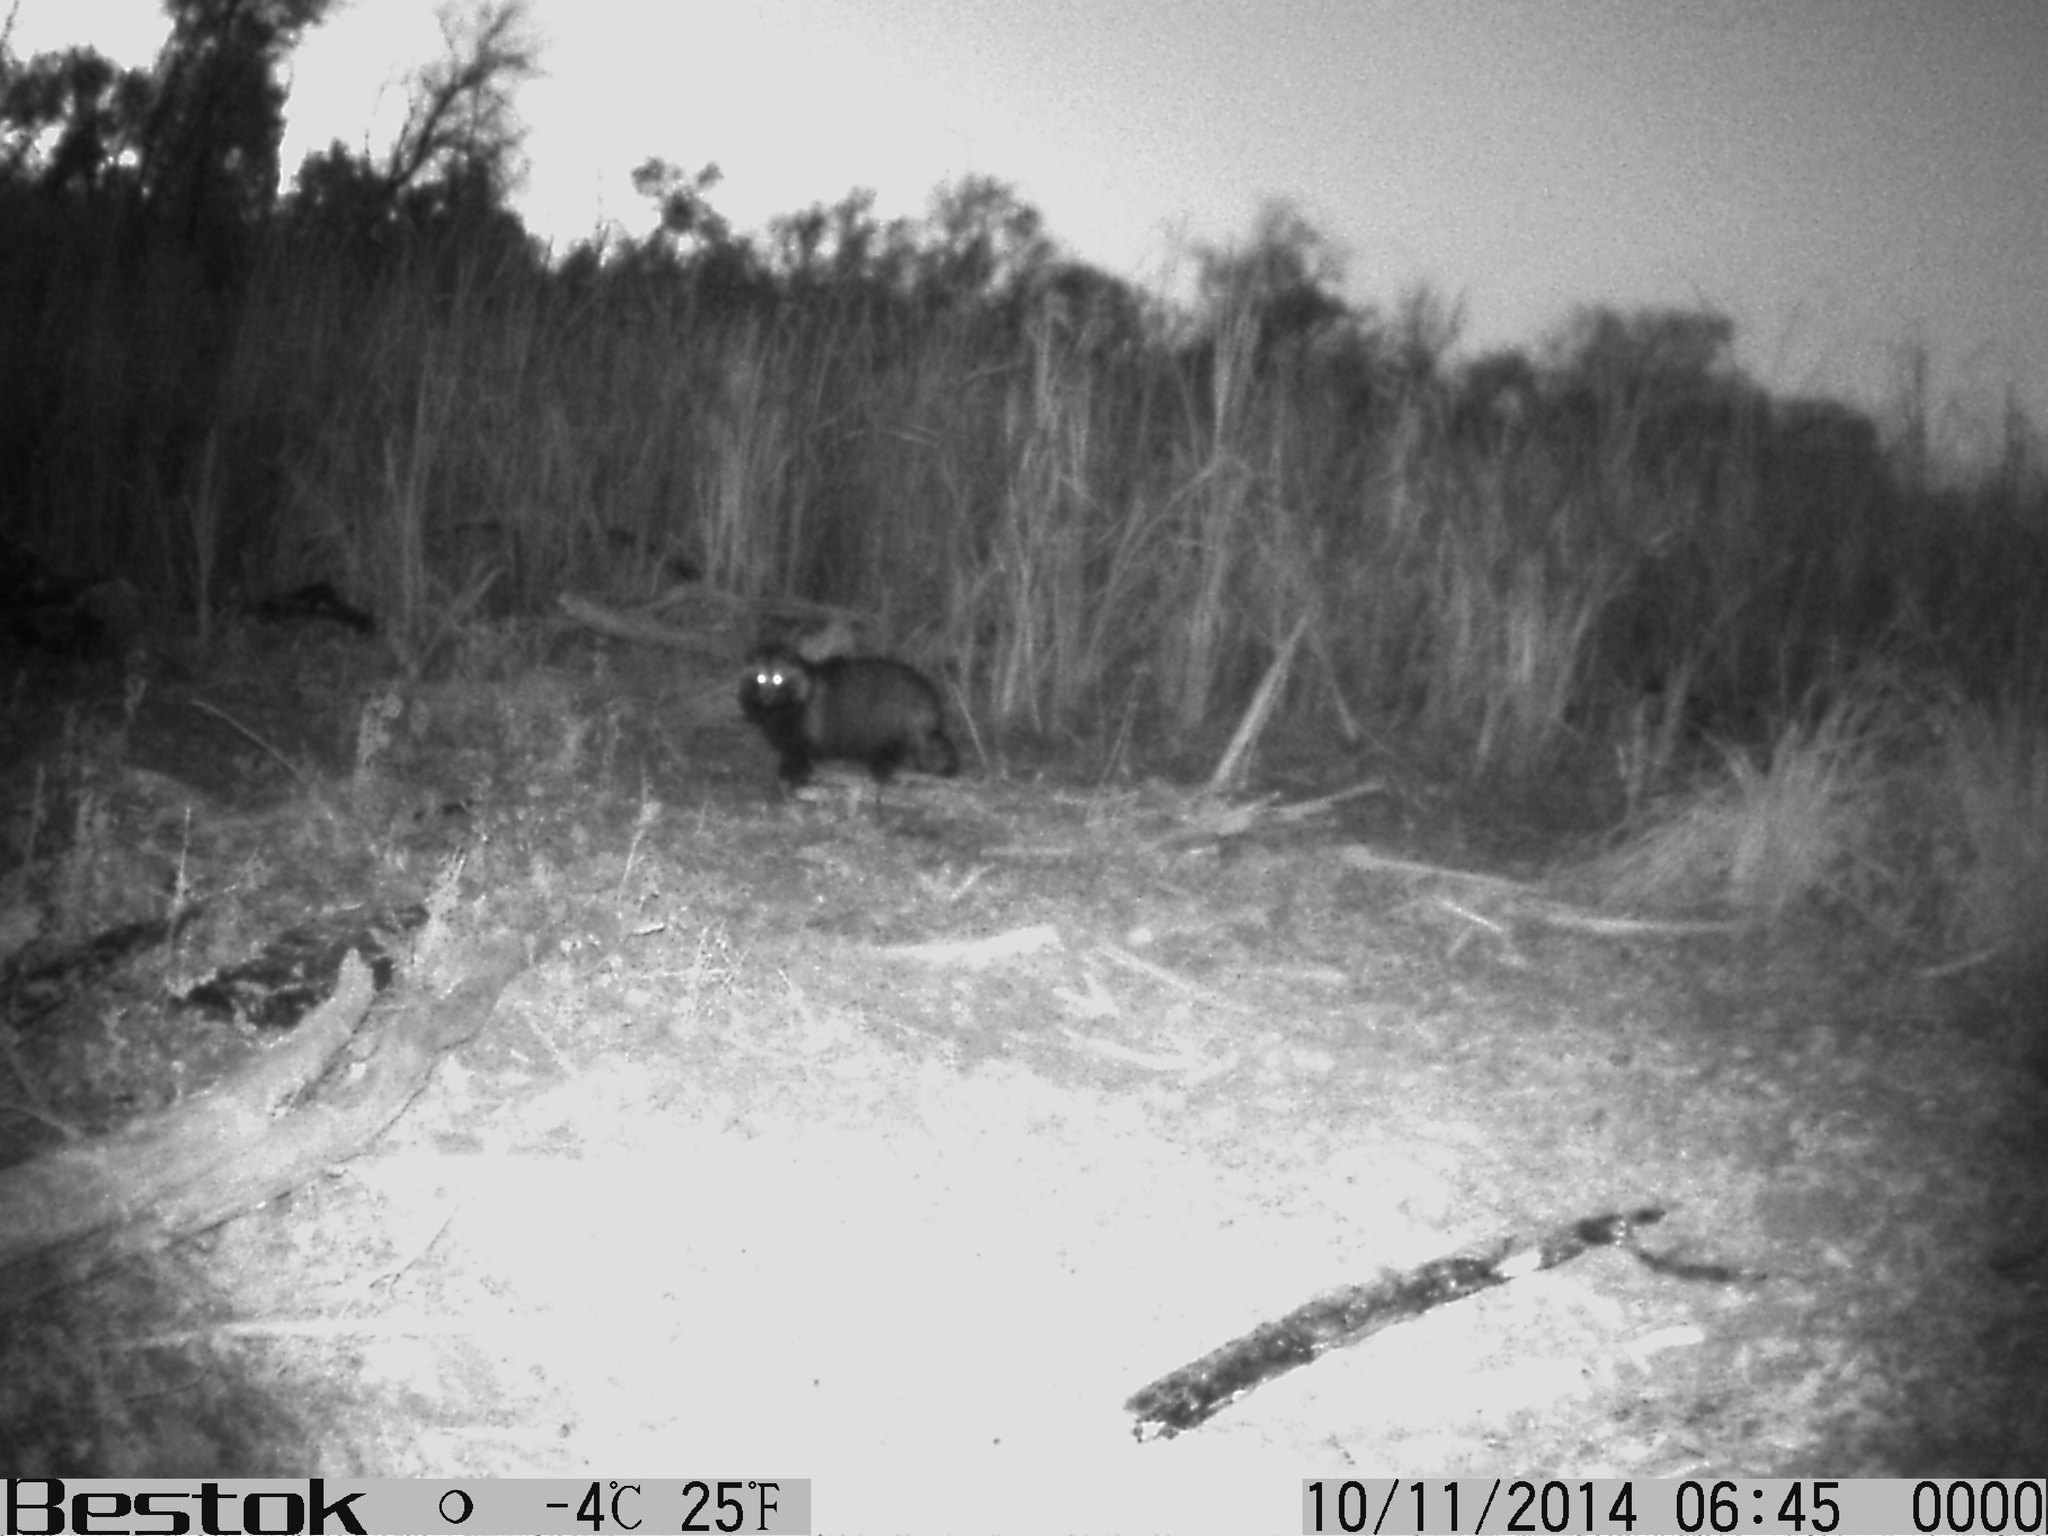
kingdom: Animalia
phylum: Chordata
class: Mammalia
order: Carnivora
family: Canidae
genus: Nyctereutes
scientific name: Nyctereutes procyonoides
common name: Raccoon dog
